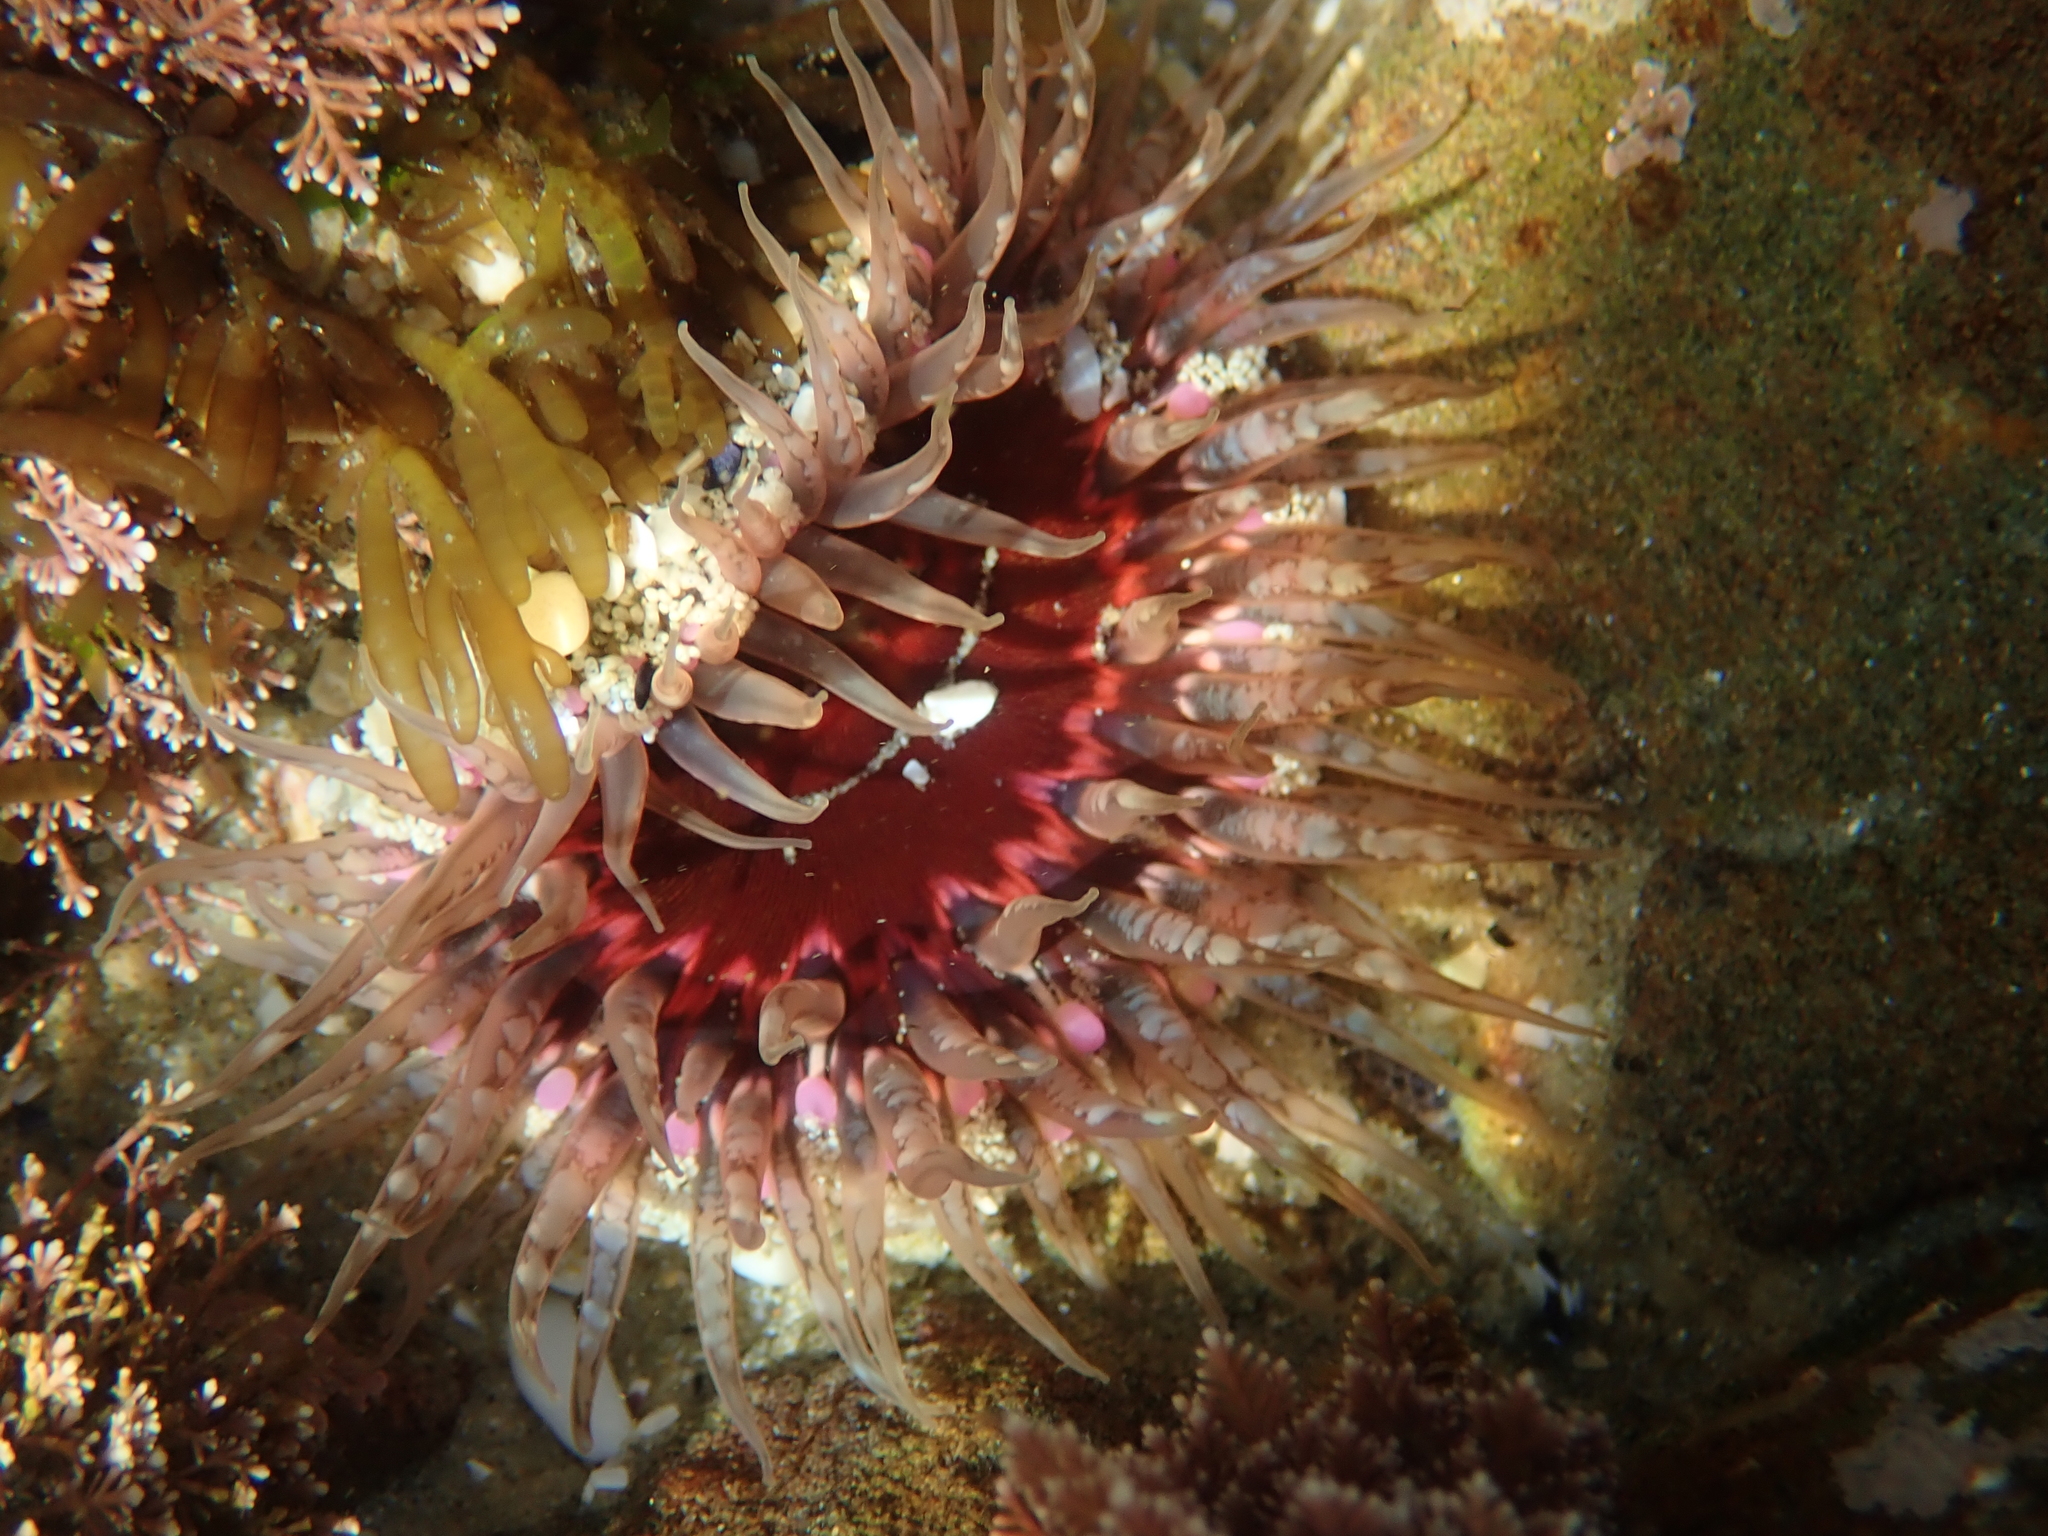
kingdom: Animalia
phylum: Cnidaria
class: Anthozoa
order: Actiniaria
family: Actiniidae
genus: Oulactis
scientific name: Oulactis muscosa
